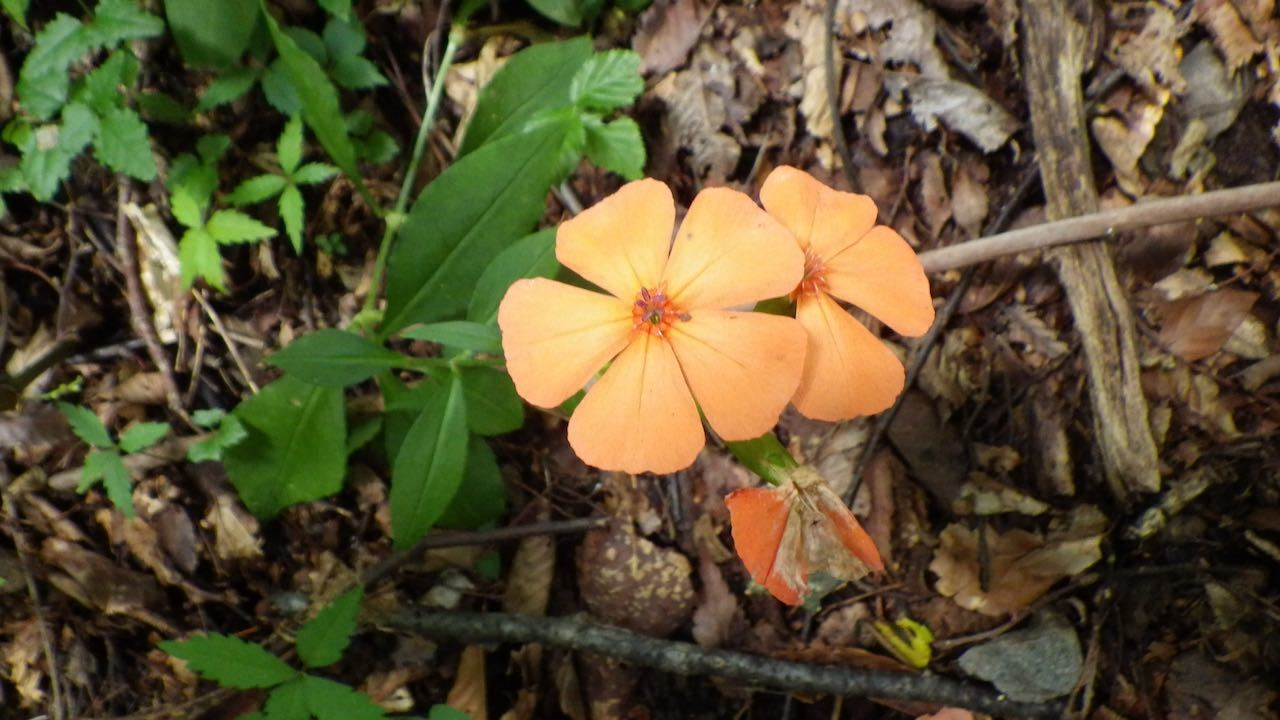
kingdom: Plantae
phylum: Tracheophyta
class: Magnoliopsida
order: Caryophyllales
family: Caryophyllaceae
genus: Silene
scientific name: Silene miqueliana
